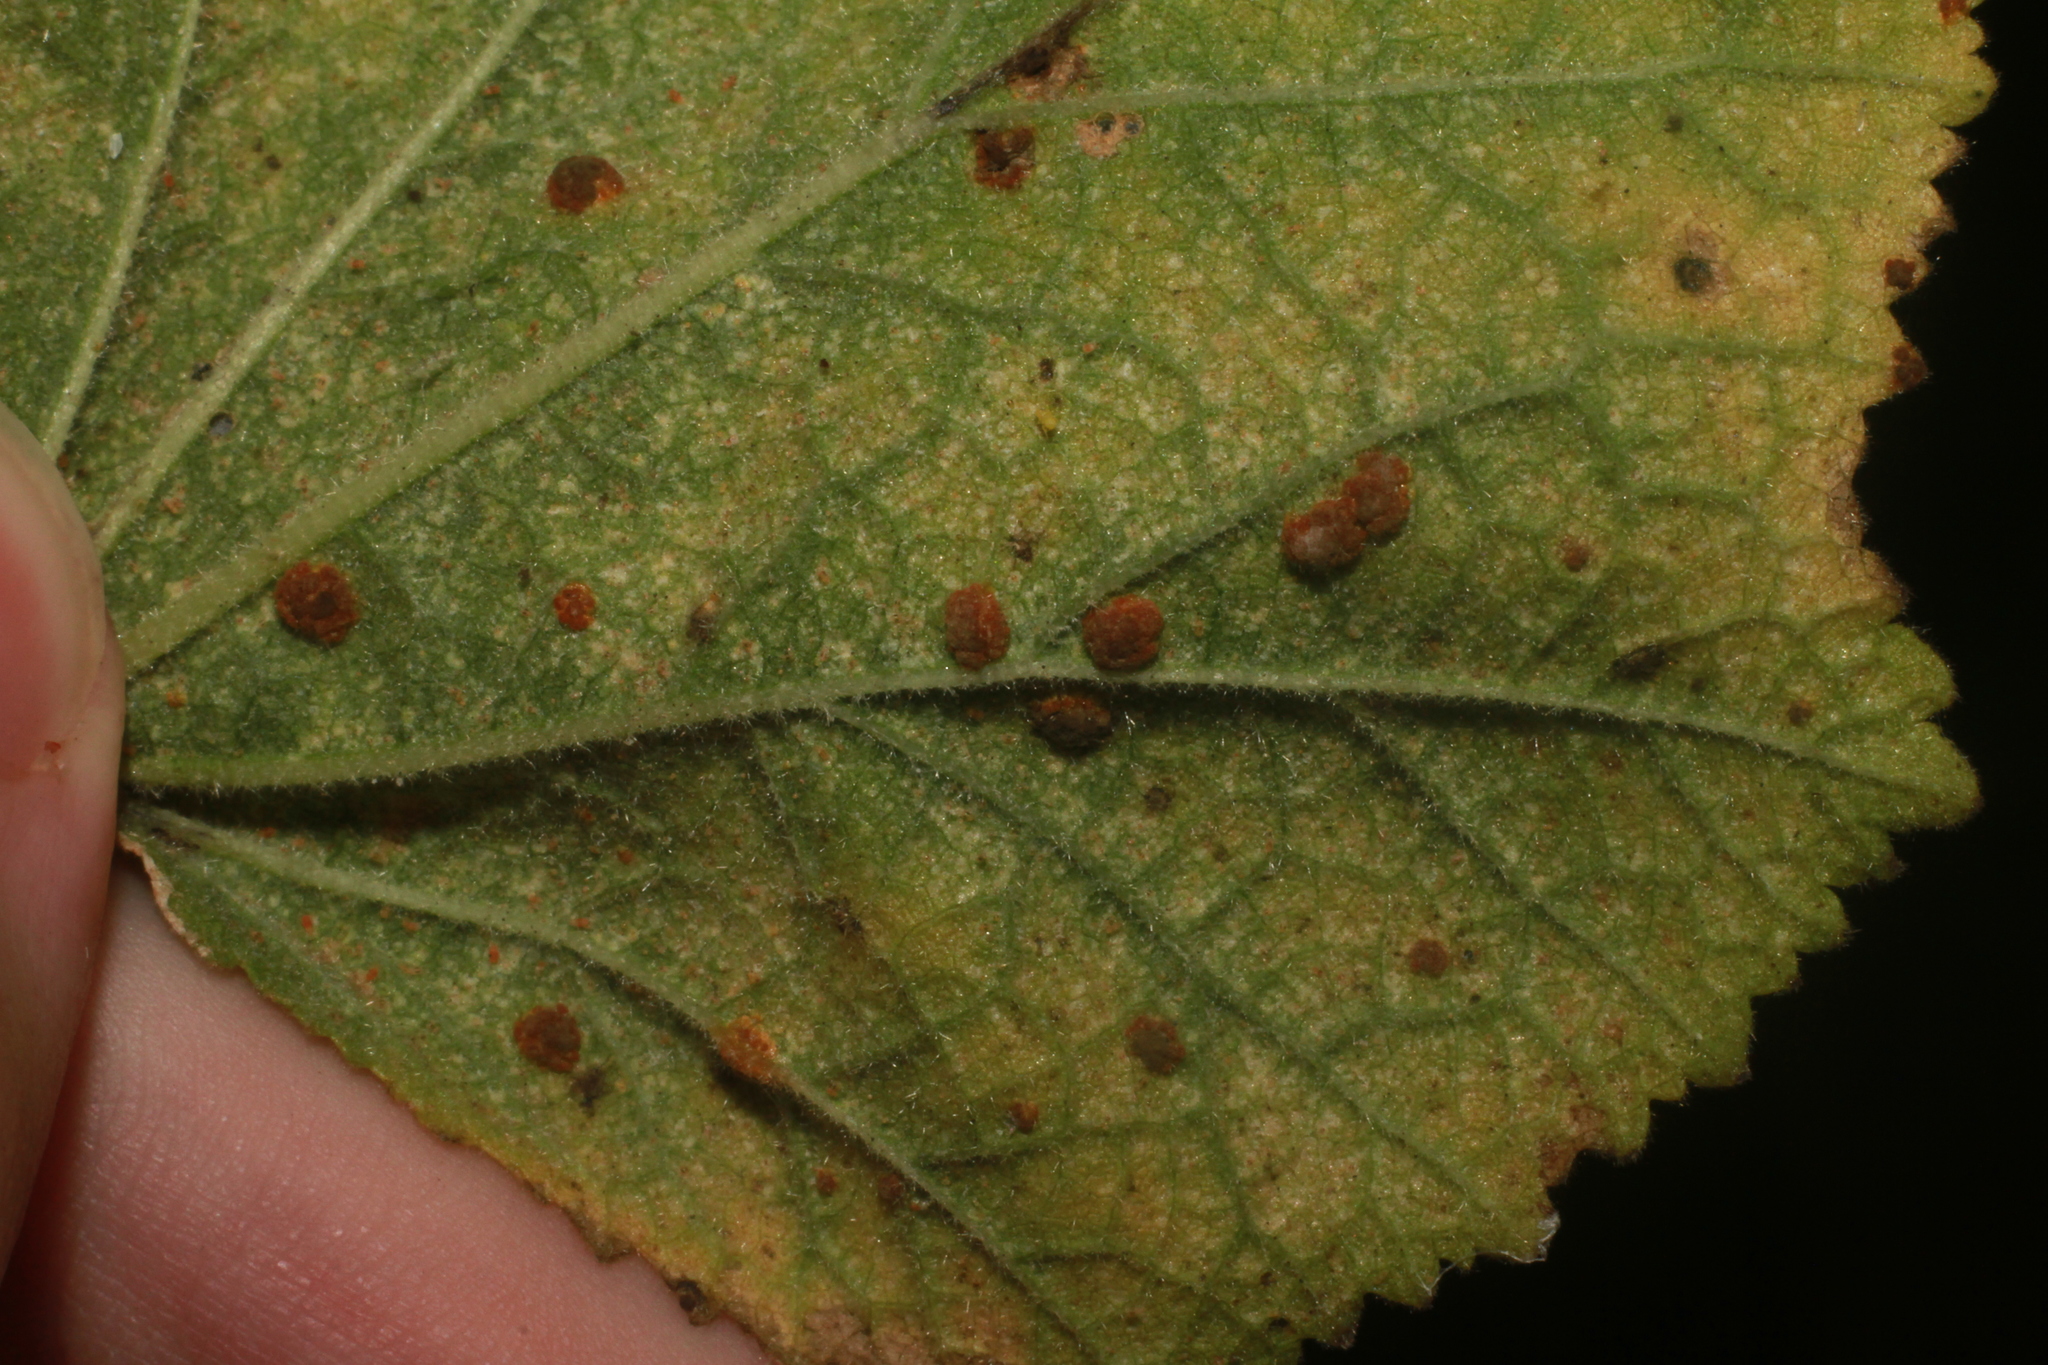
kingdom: Fungi
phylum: Basidiomycota
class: Pucciniomycetes
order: Pucciniales
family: Pucciniaceae
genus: Puccinia
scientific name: Puccinia malvacearum
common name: Hollyhock rust
